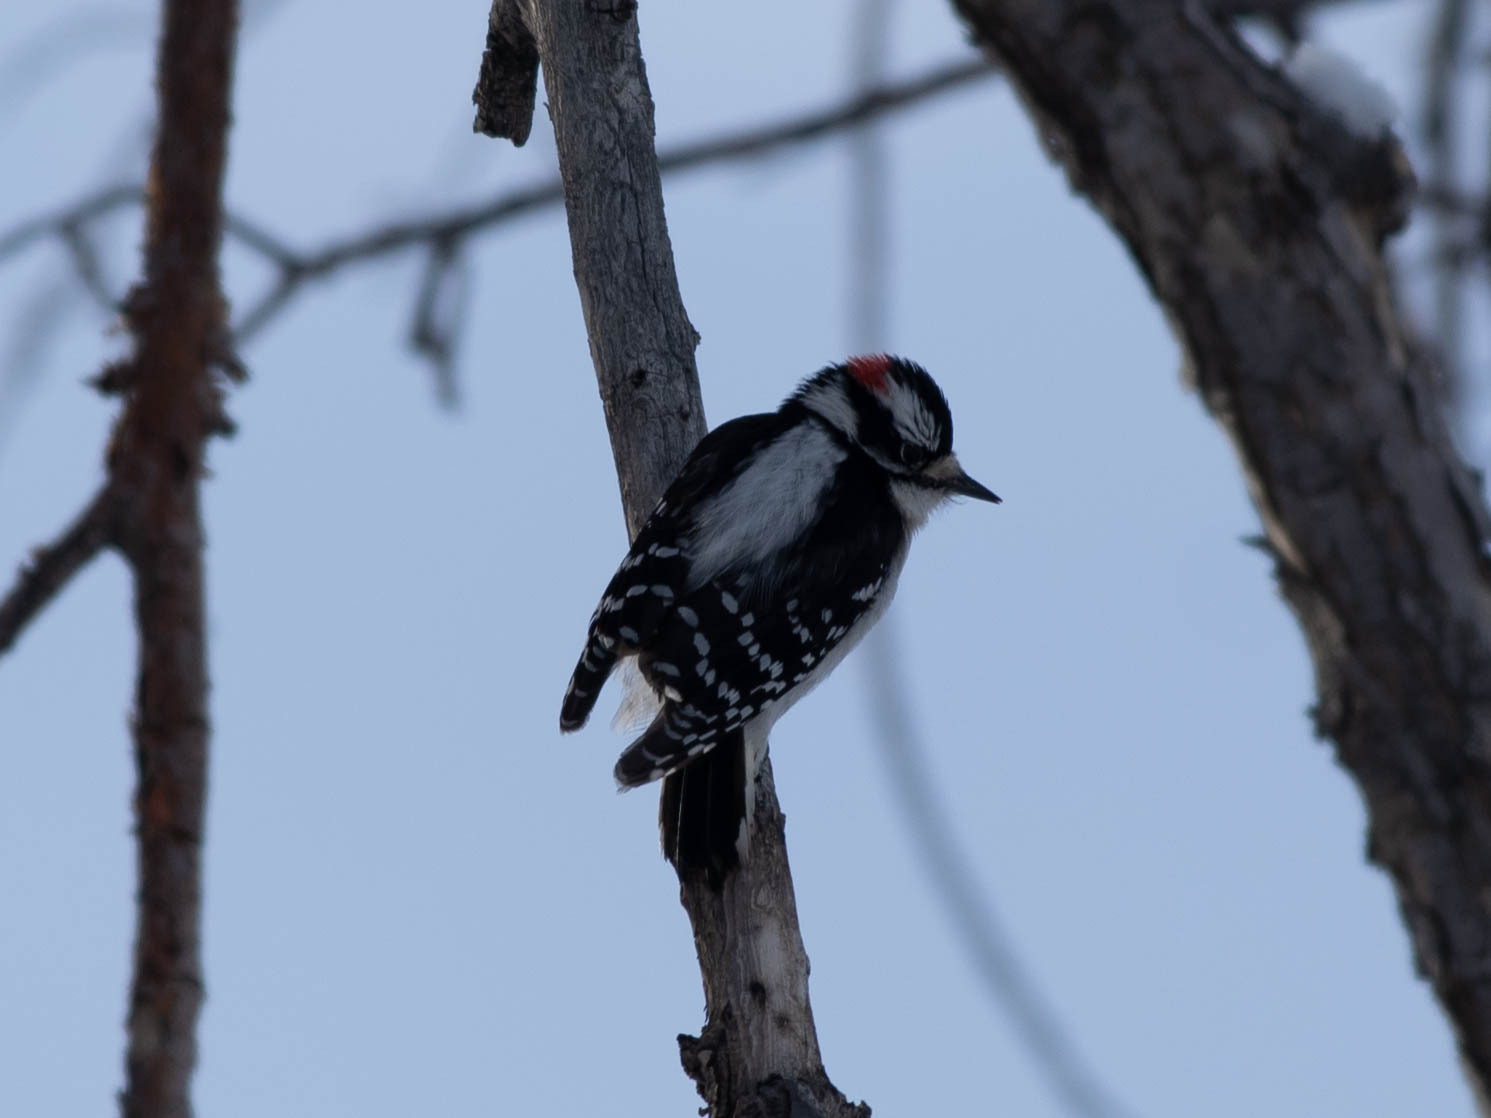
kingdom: Animalia
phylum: Chordata
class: Aves
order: Piciformes
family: Picidae
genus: Dryobates
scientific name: Dryobates pubescens
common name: Downy woodpecker
